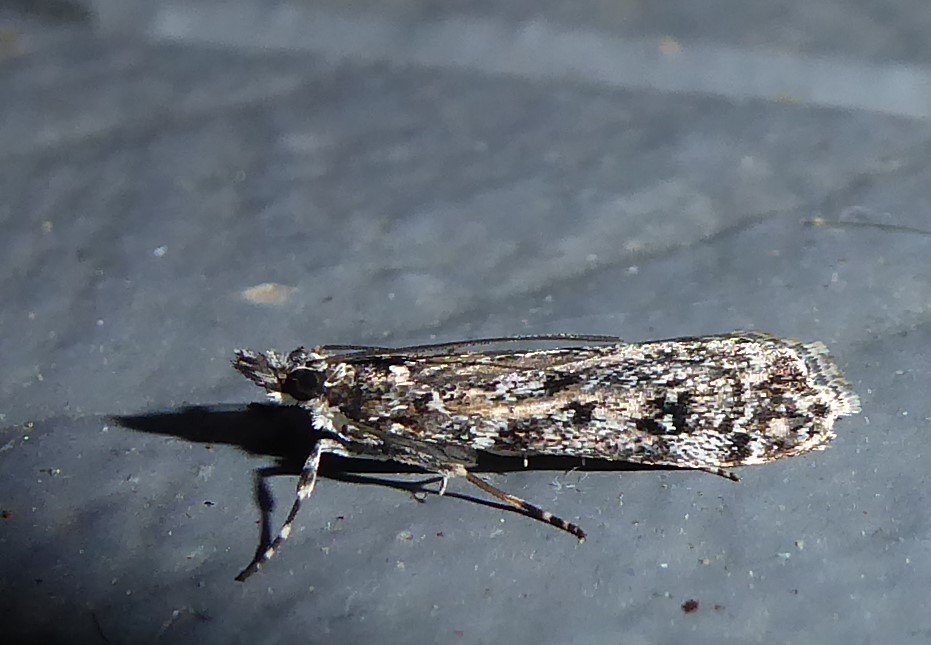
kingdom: Animalia
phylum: Arthropoda
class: Insecta
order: Lepidoptera
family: Crambidae
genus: Eudonia
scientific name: Eudonia philerga
